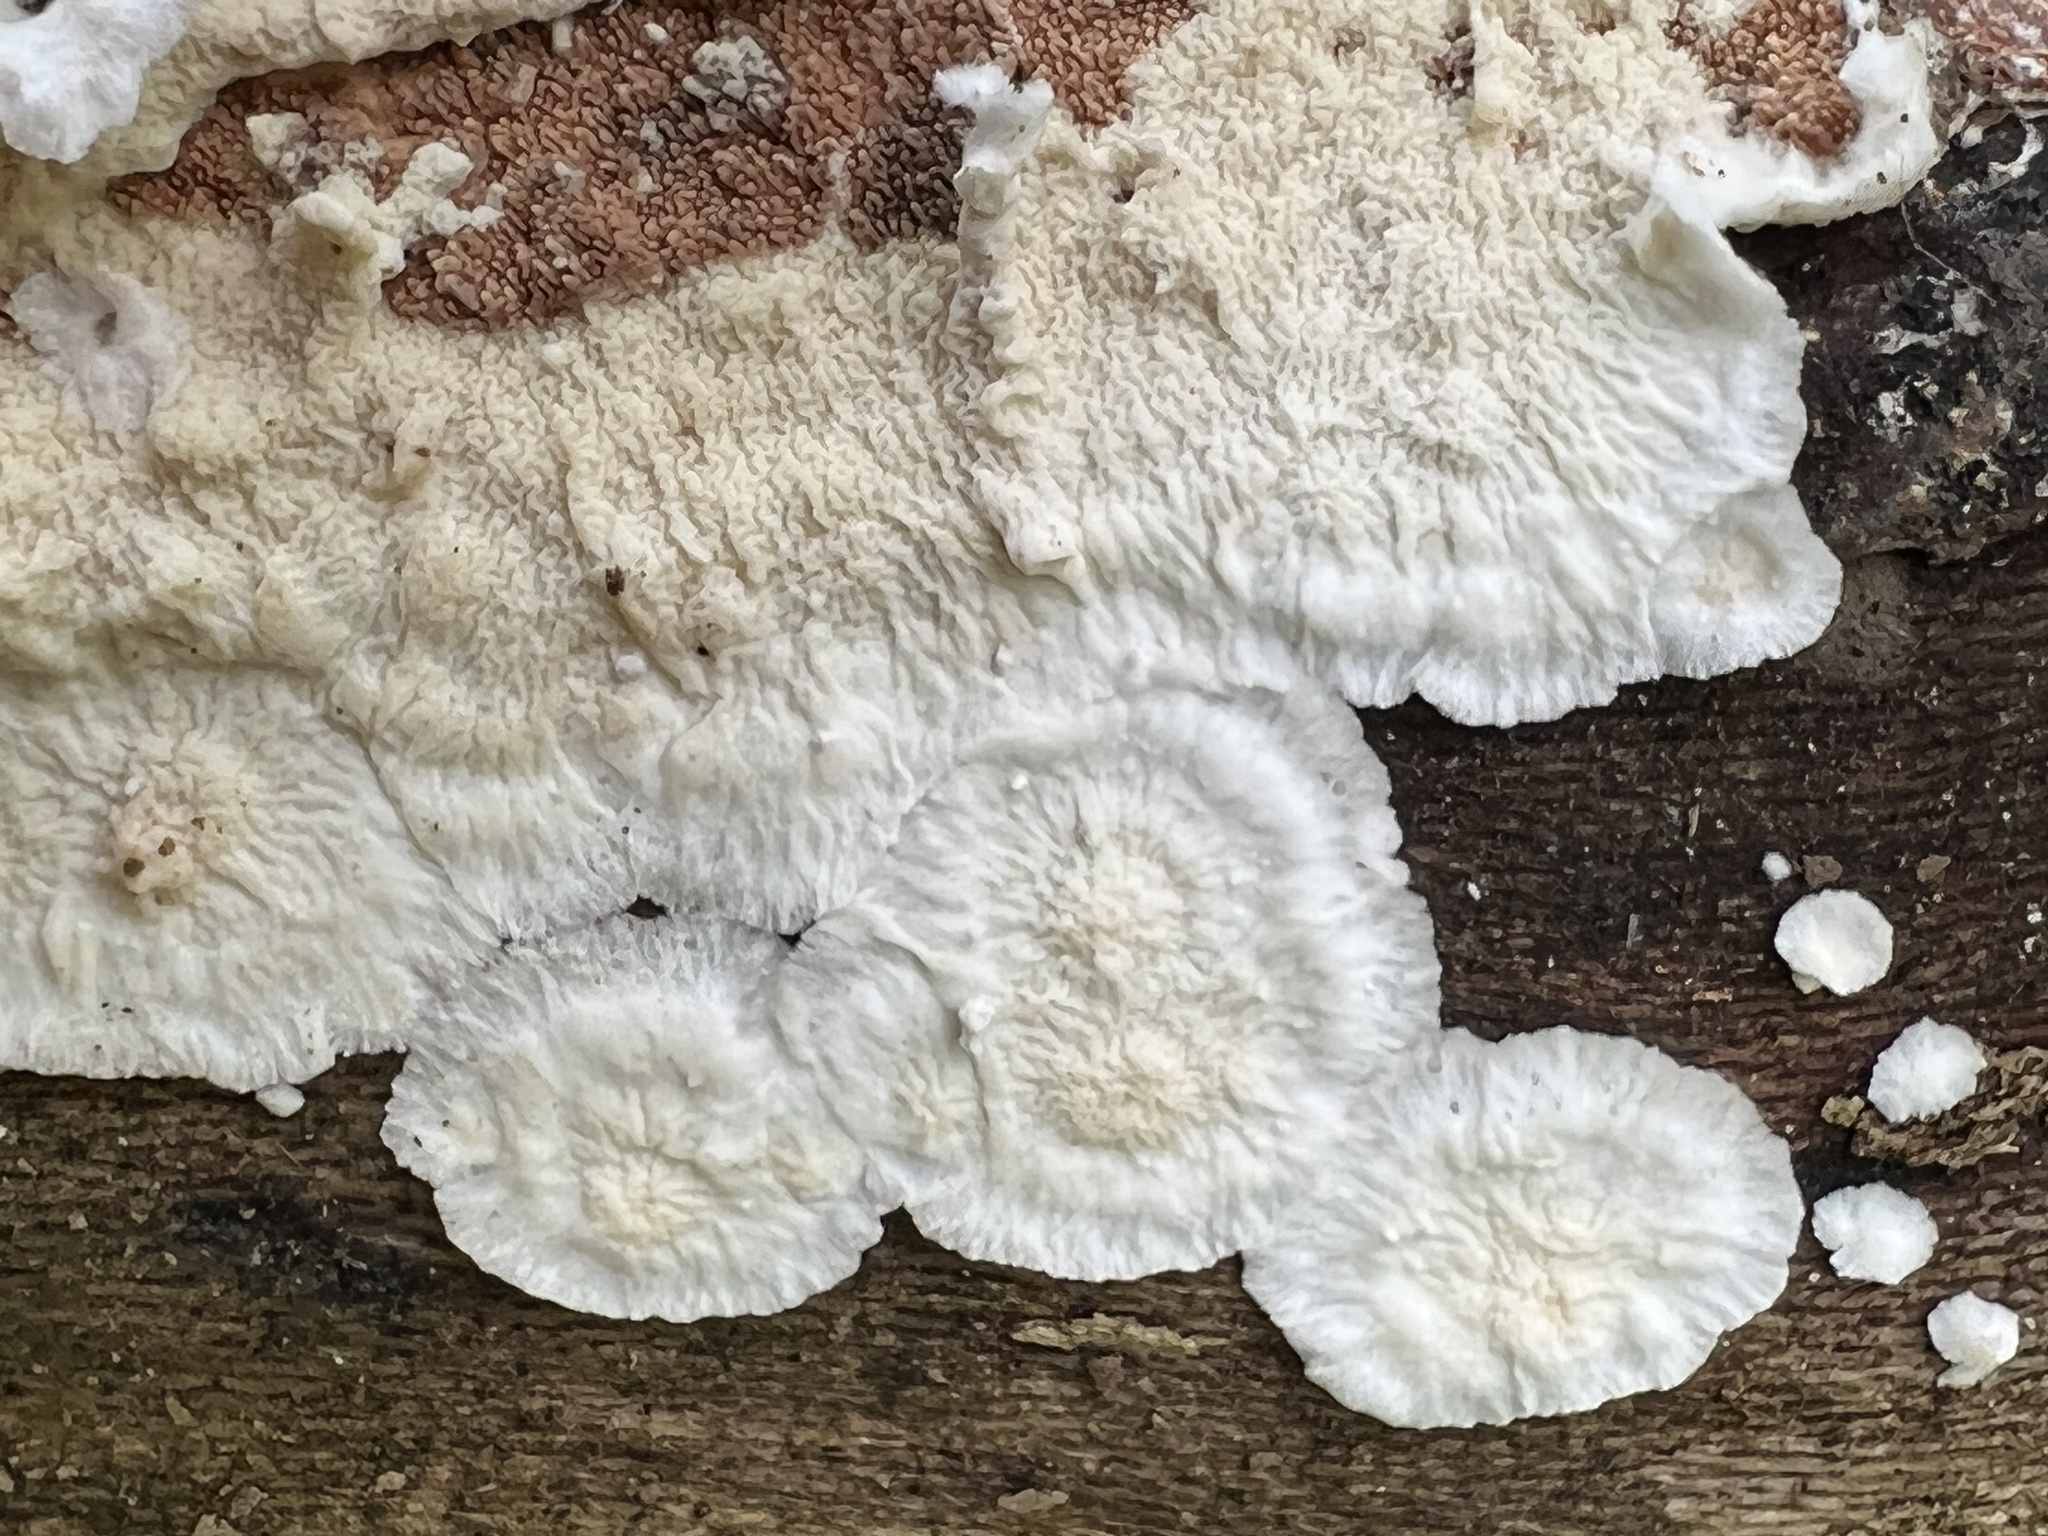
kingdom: Fungi
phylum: Basidiomycota
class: Agaricomycetes
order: Polyporales
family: Irpicaceae
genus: Byssomerulius
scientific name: Byssomerulius corium
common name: Netted crust
